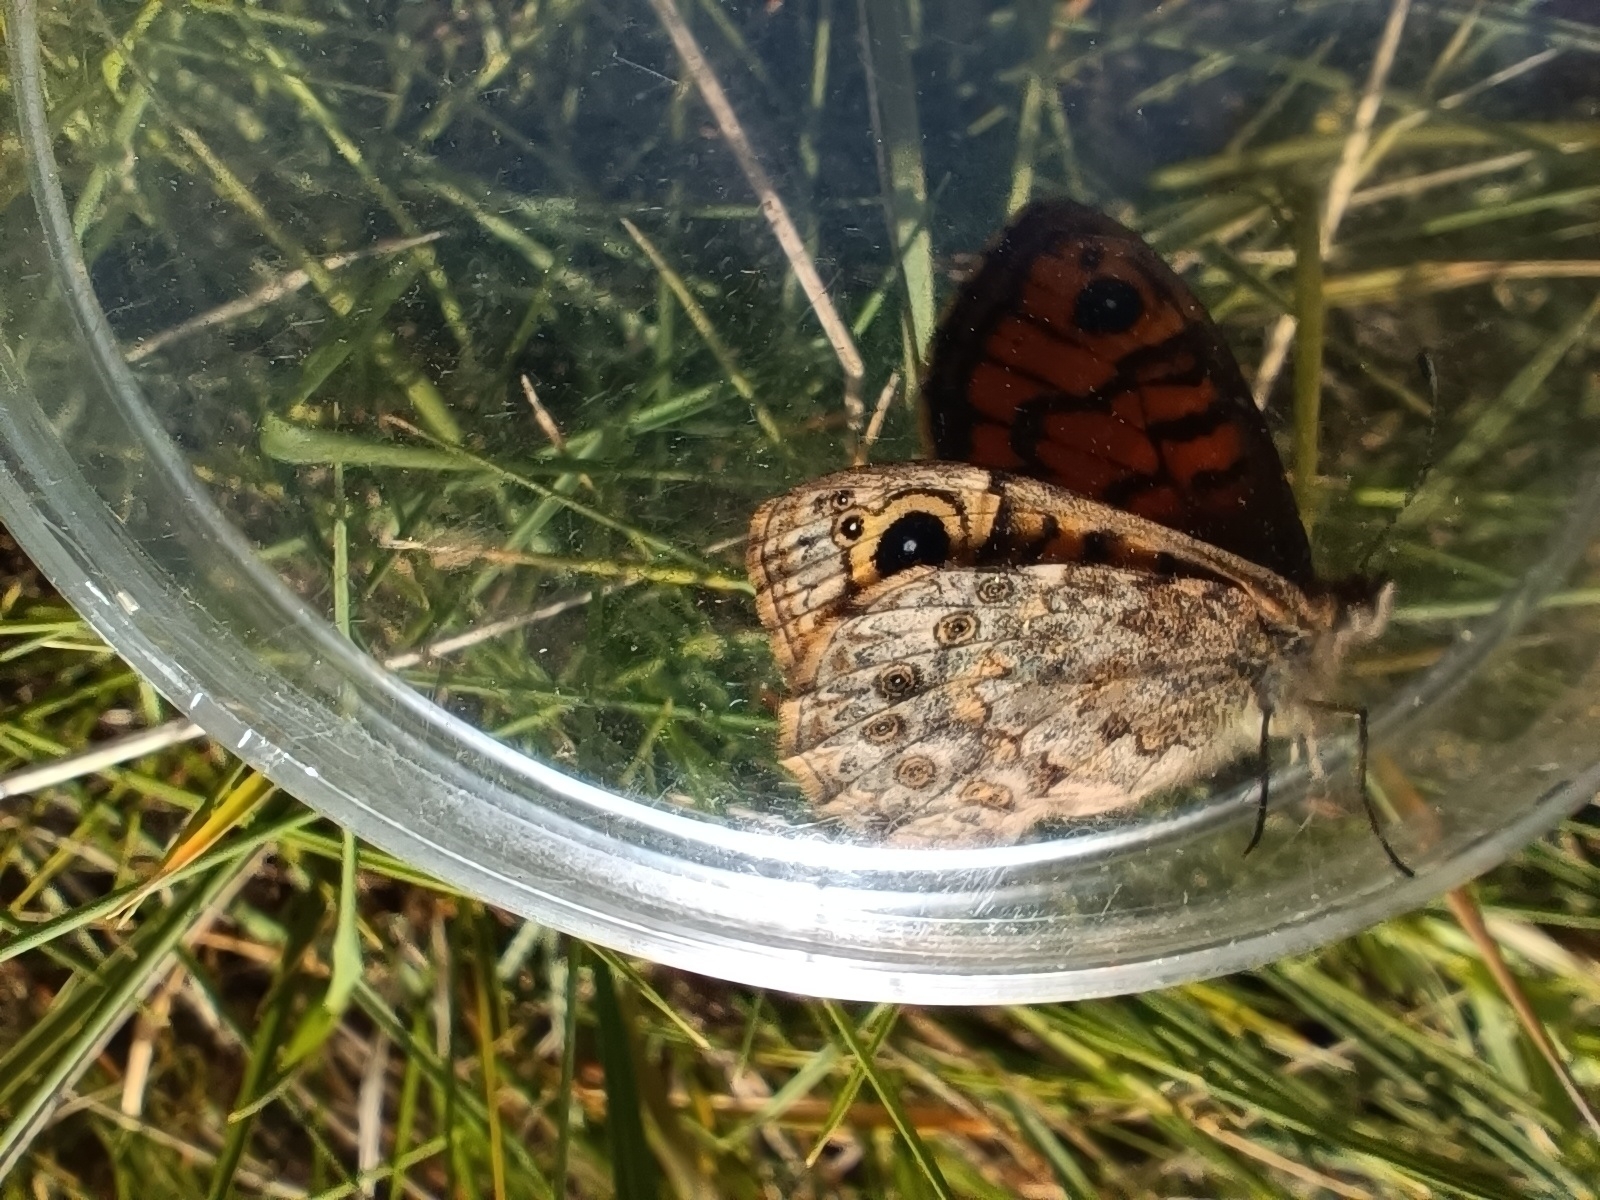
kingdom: Animalia
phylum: Arthropoda
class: Insecta
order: Lepidoptera
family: Nymphalidae
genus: Pararge
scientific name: Pararge Lasiommata megera
